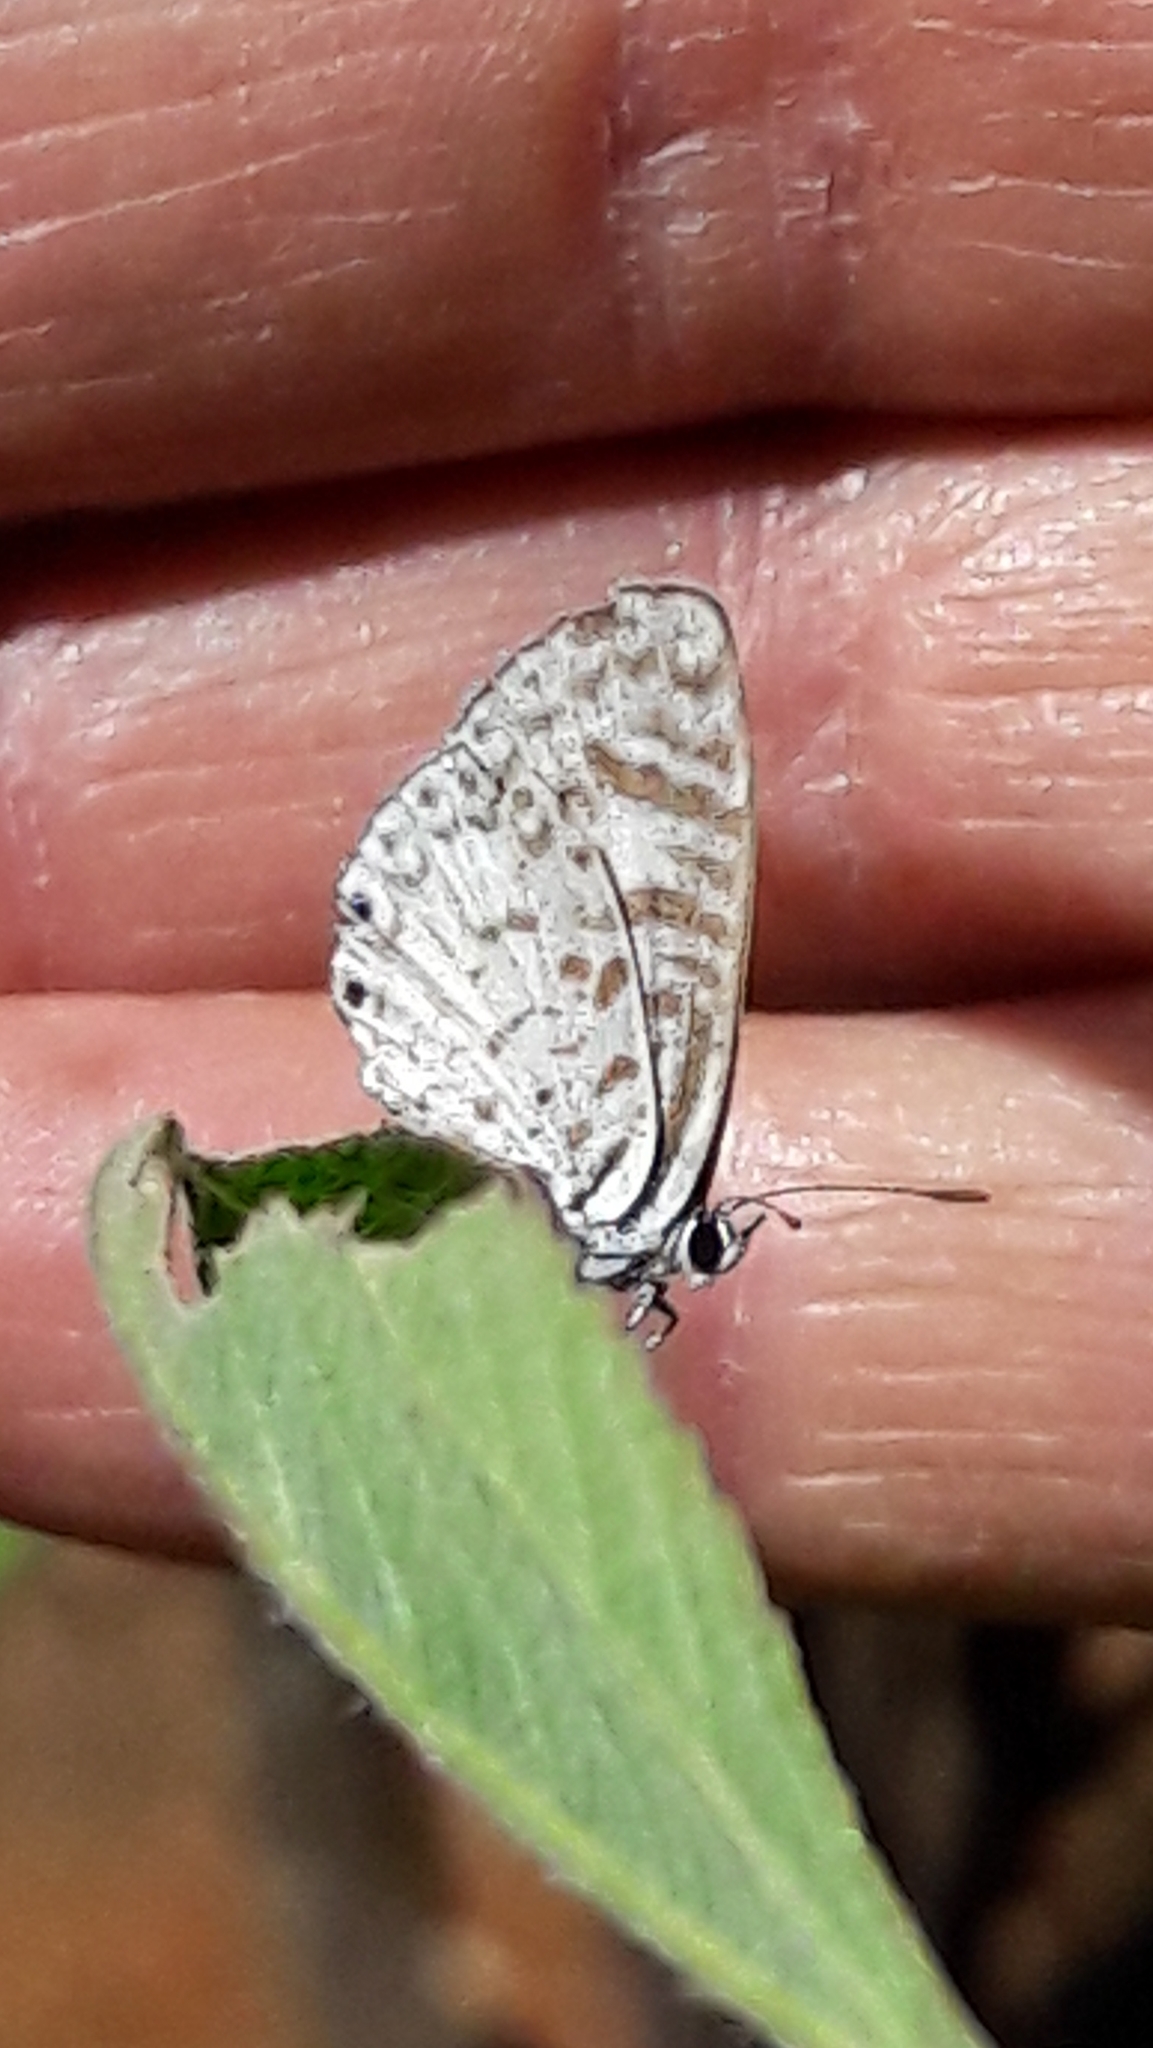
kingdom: Animalia
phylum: Arthropoda
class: Insecta
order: Lepidoptera
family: Lycaenidae
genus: Leptotes
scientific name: Leptotes cassius
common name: Cassius blue
